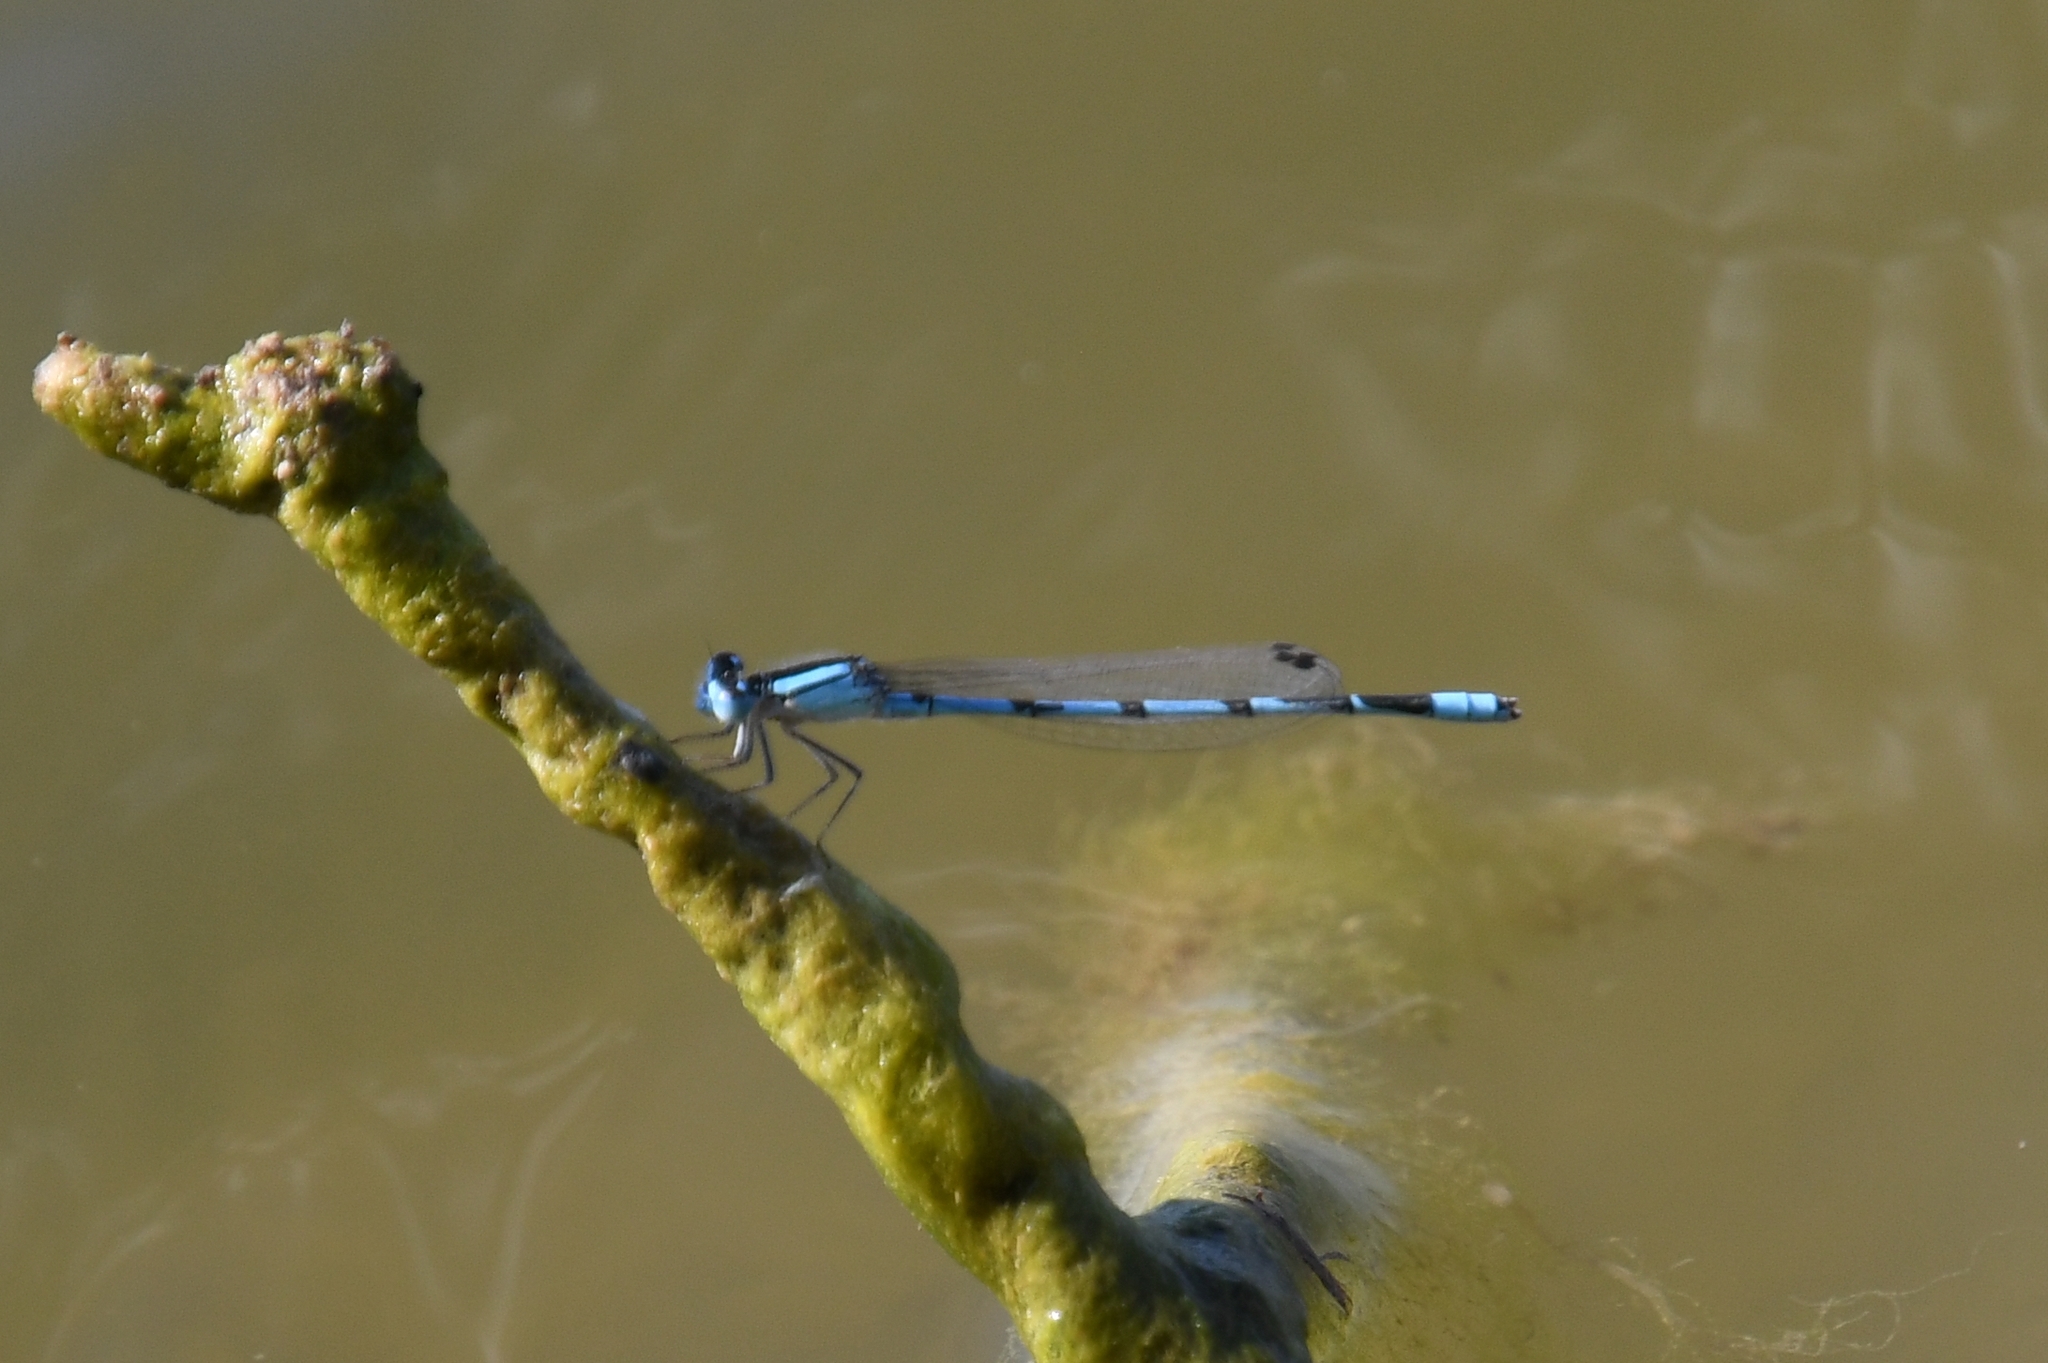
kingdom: Animalia
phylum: Arthropoda
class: Insecta
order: Odonata
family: Coenagrionidae
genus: Enallagma
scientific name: Enallagma civile
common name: Damselfly
